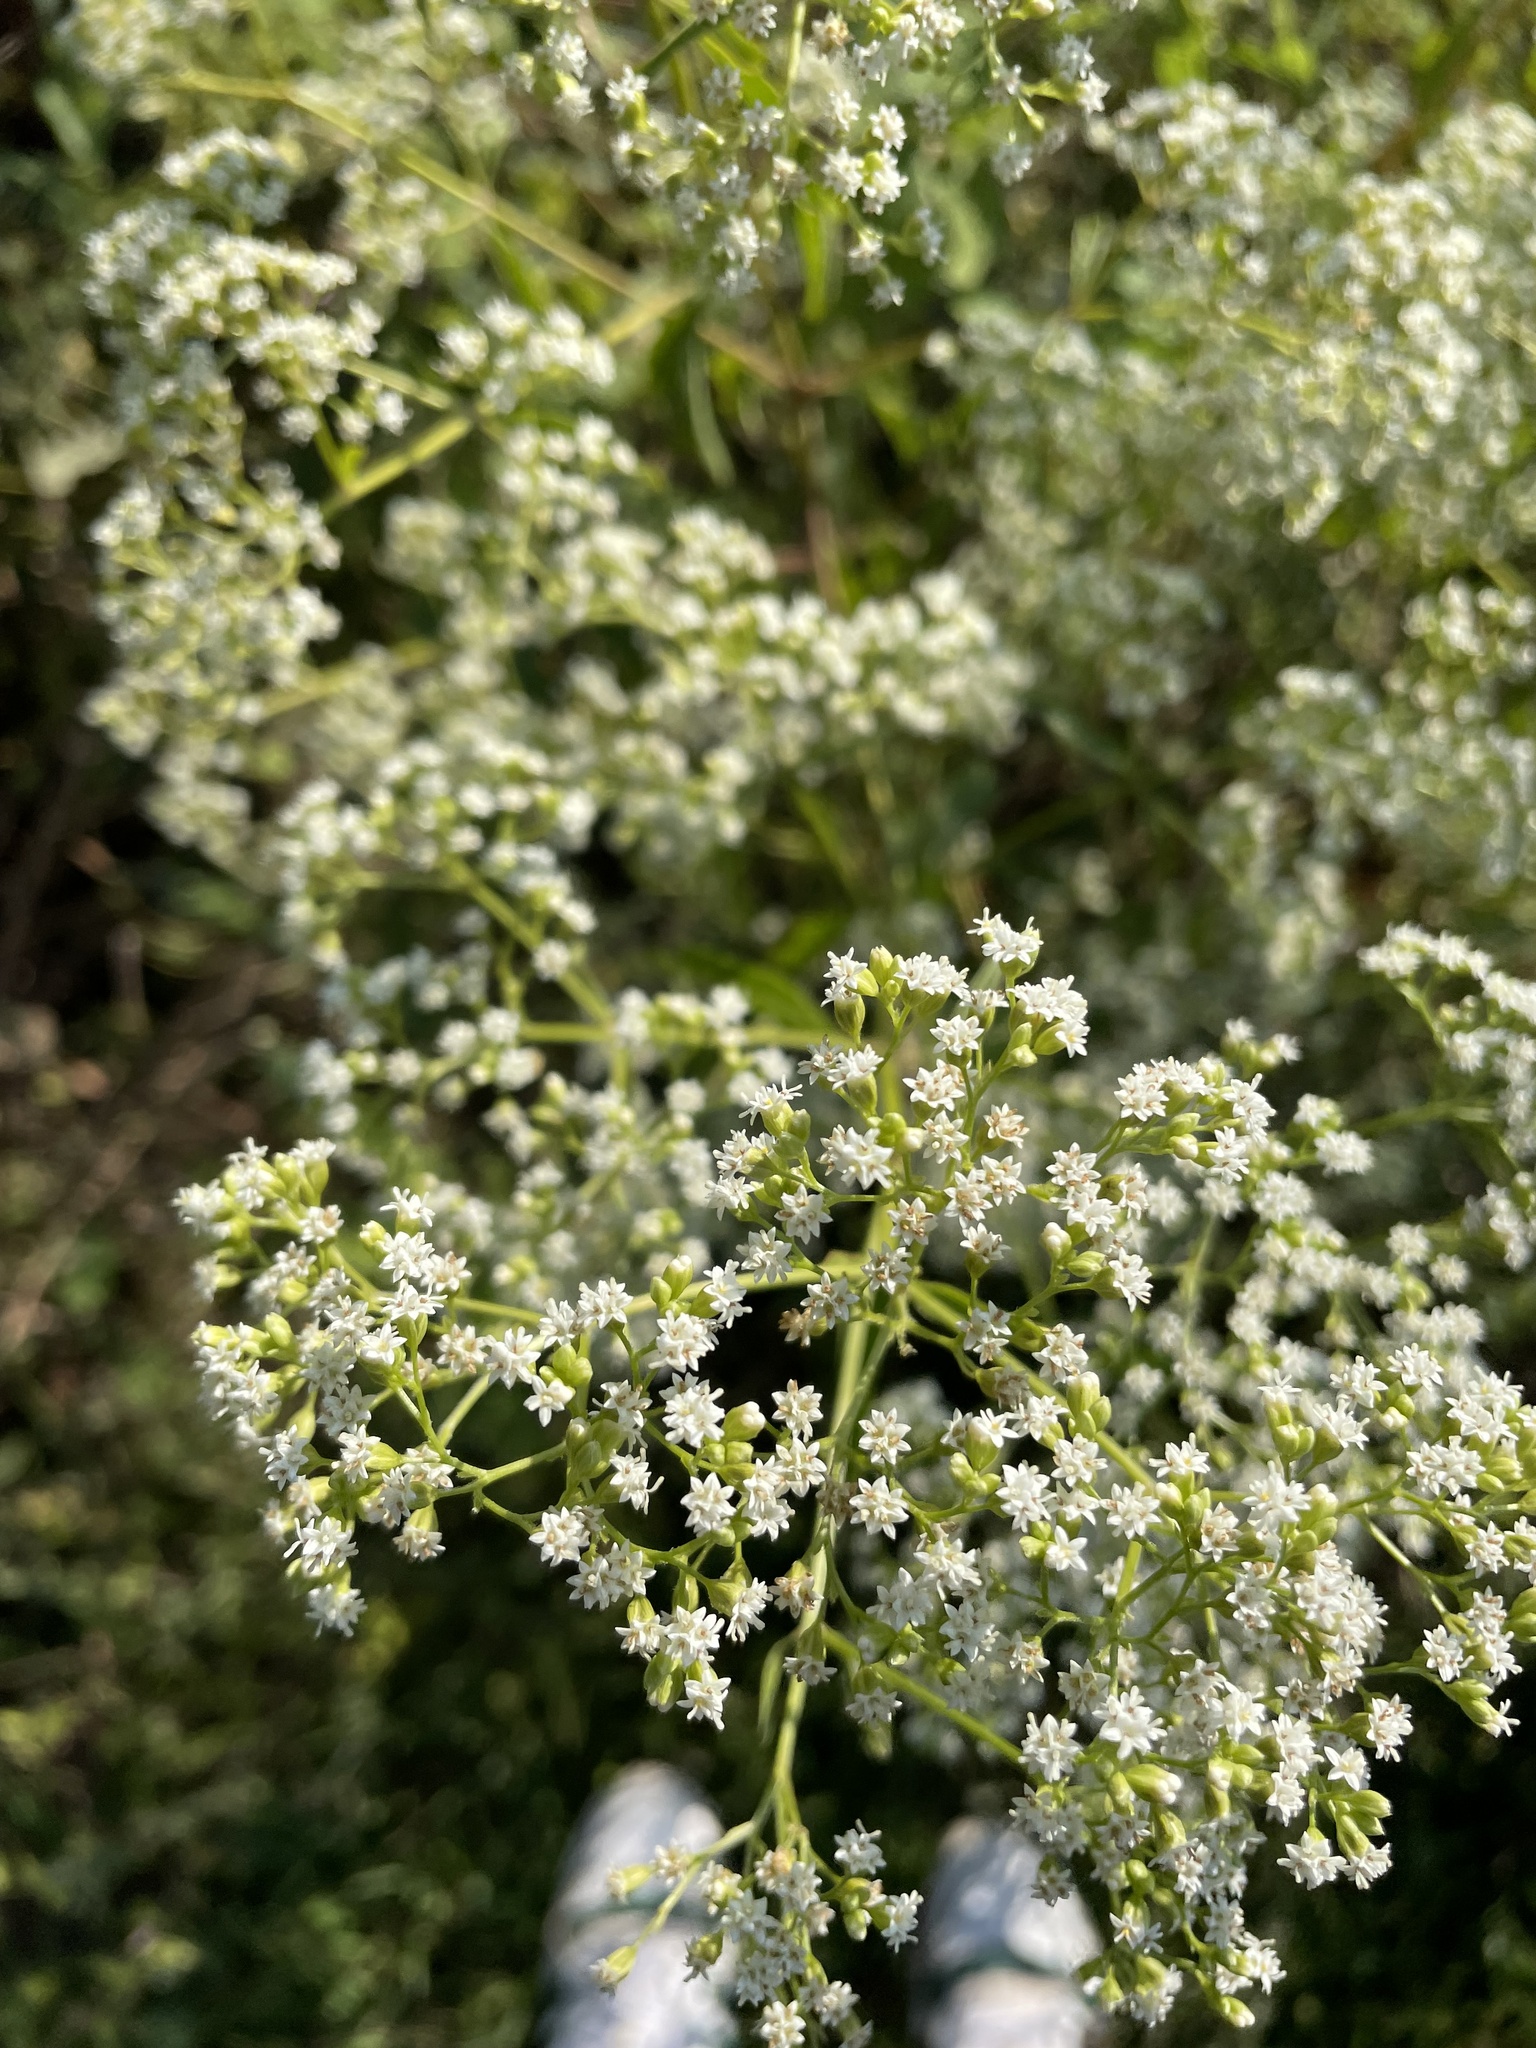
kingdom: Plantae
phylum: Tracheophyta
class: Magnoliopsida
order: Asterales
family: Asteraceae
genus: Piqueria
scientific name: Piqueria trinervia
